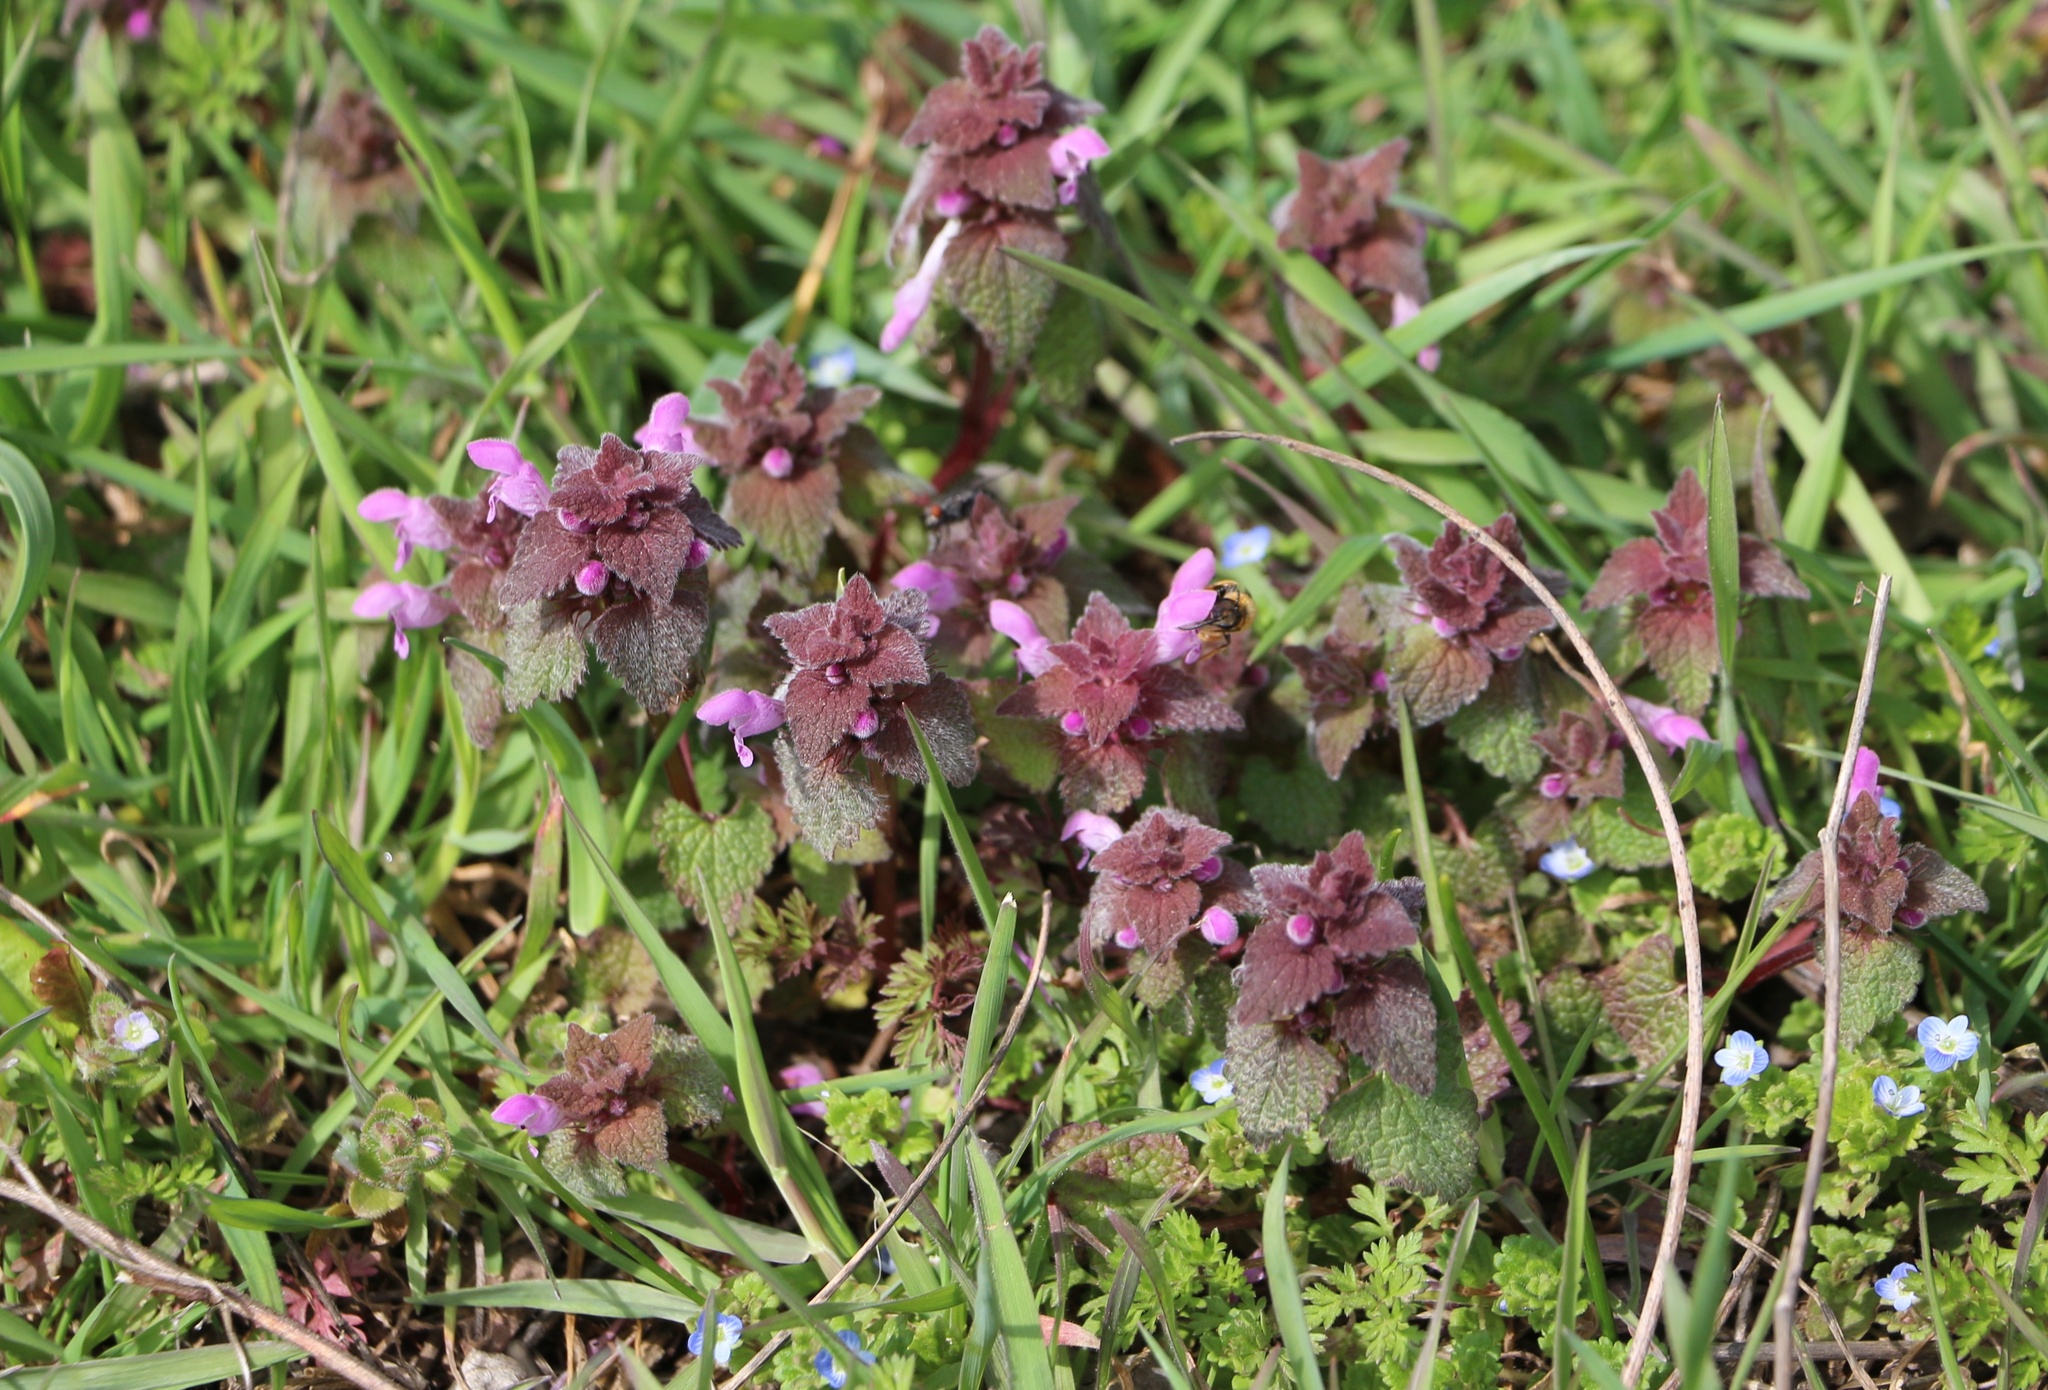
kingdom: Plantae
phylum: Tracheophyta
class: Magnoliopsida
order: Lamiales
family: Lamiaceae
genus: Lamium
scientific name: Lamium purpureum
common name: Red dead-nettle
